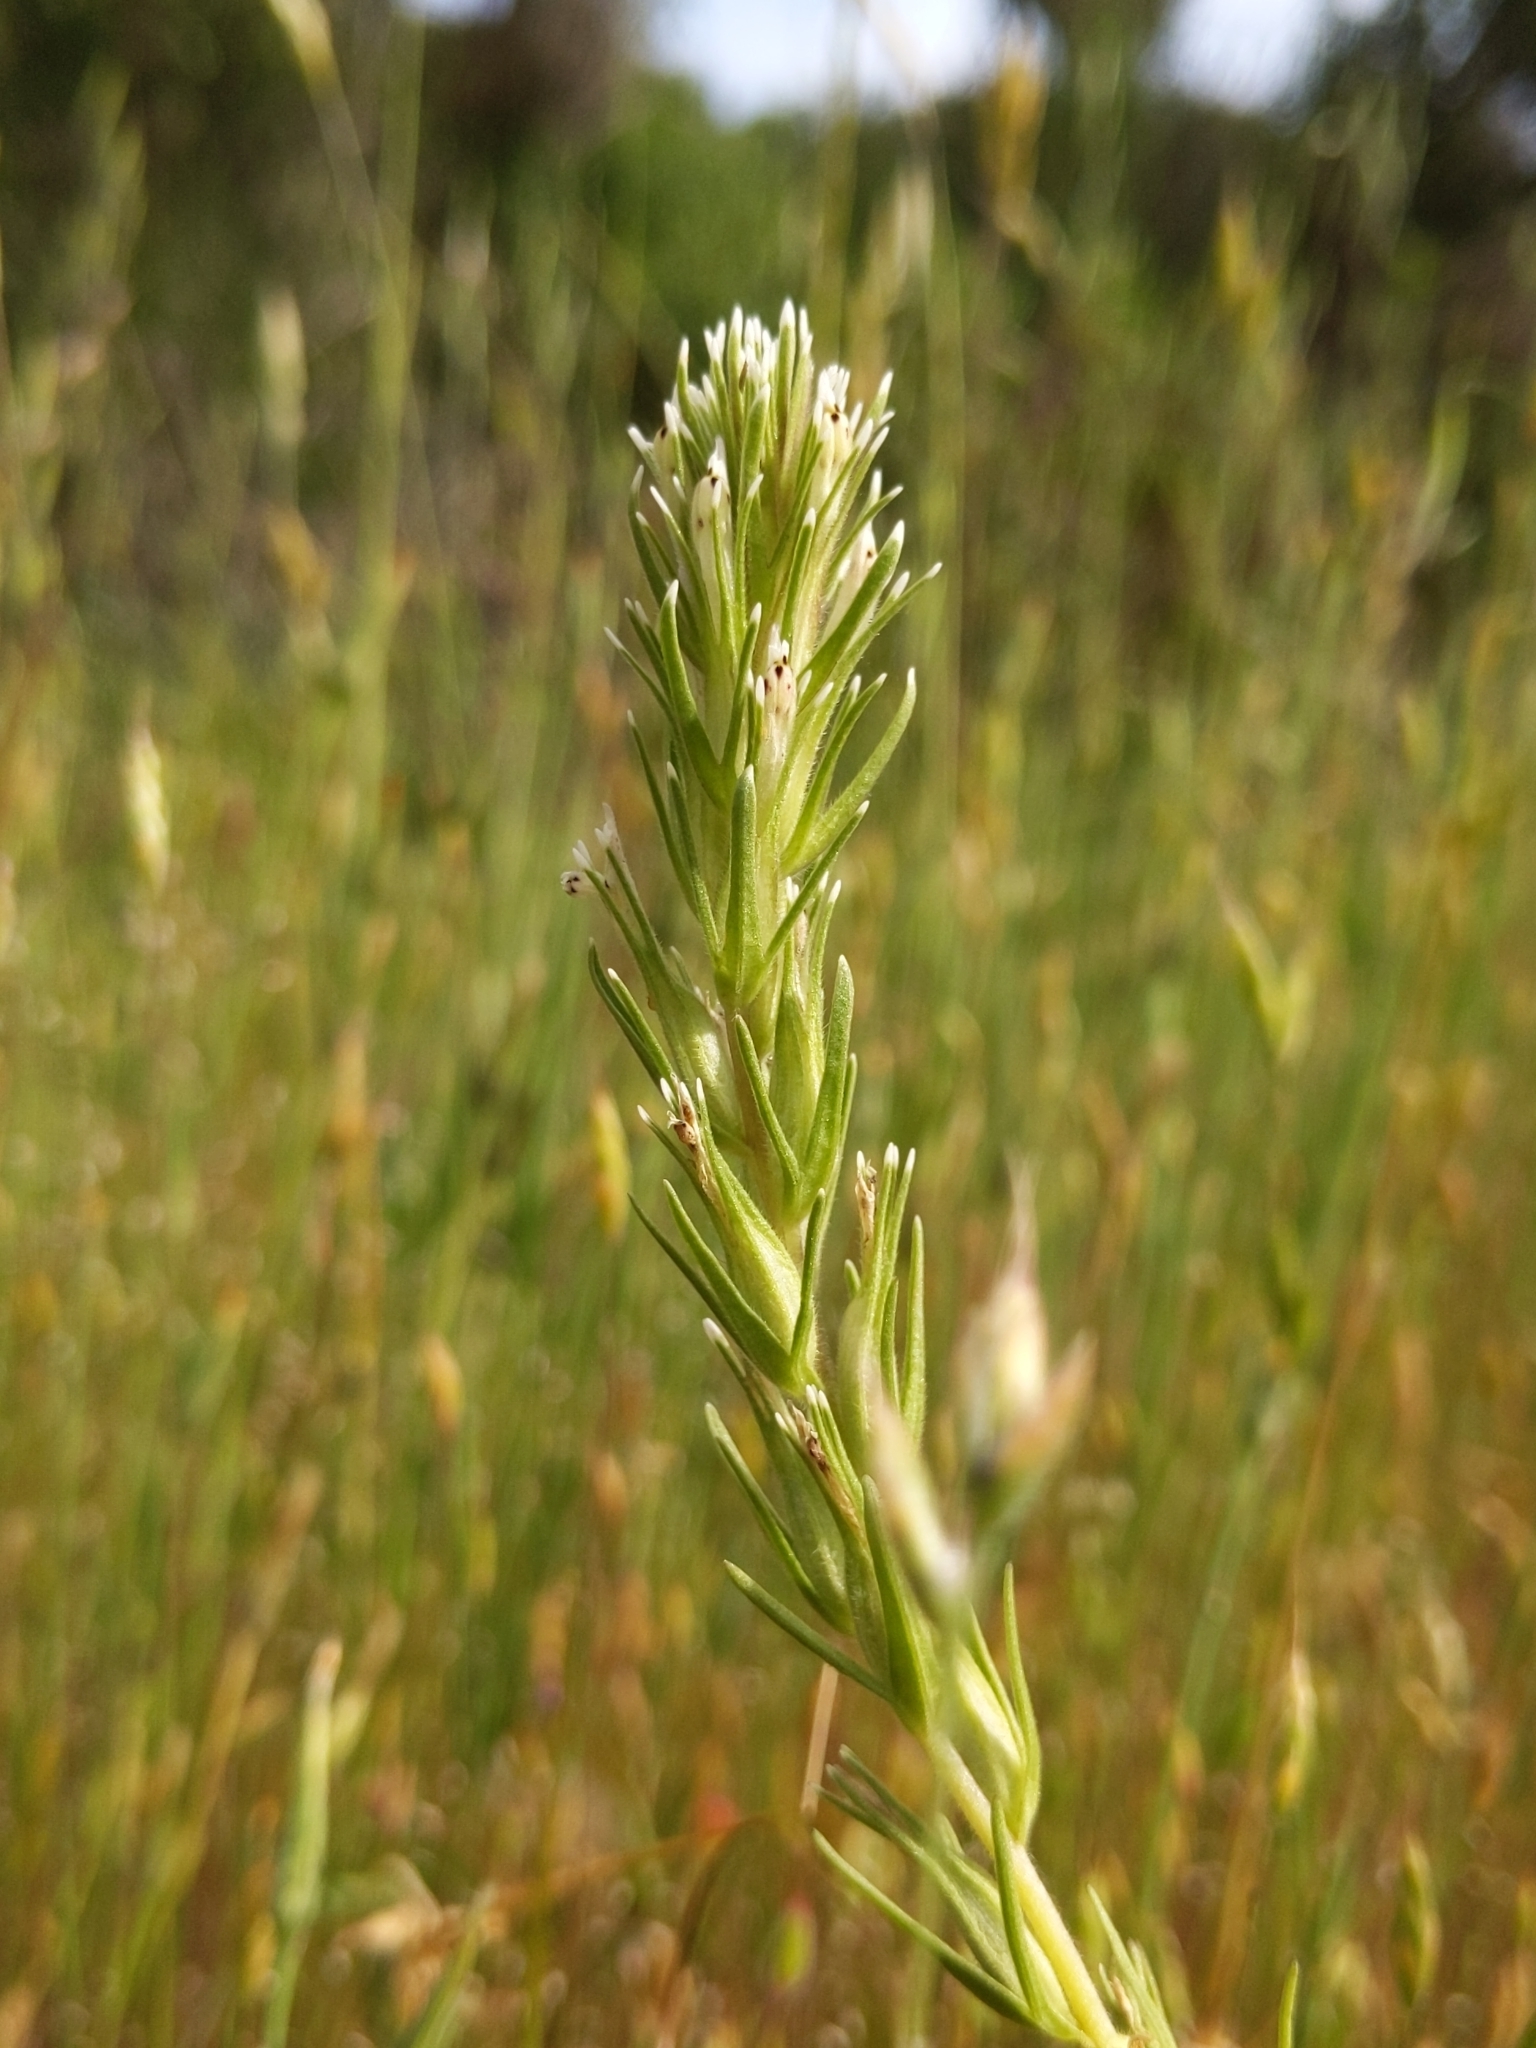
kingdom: Plantae
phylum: Tracheophyta
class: Magnoliopsida
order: Lamiales
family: Orobanchaceae
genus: Castilleja
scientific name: Castilleja attenuata
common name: Valley tassels
